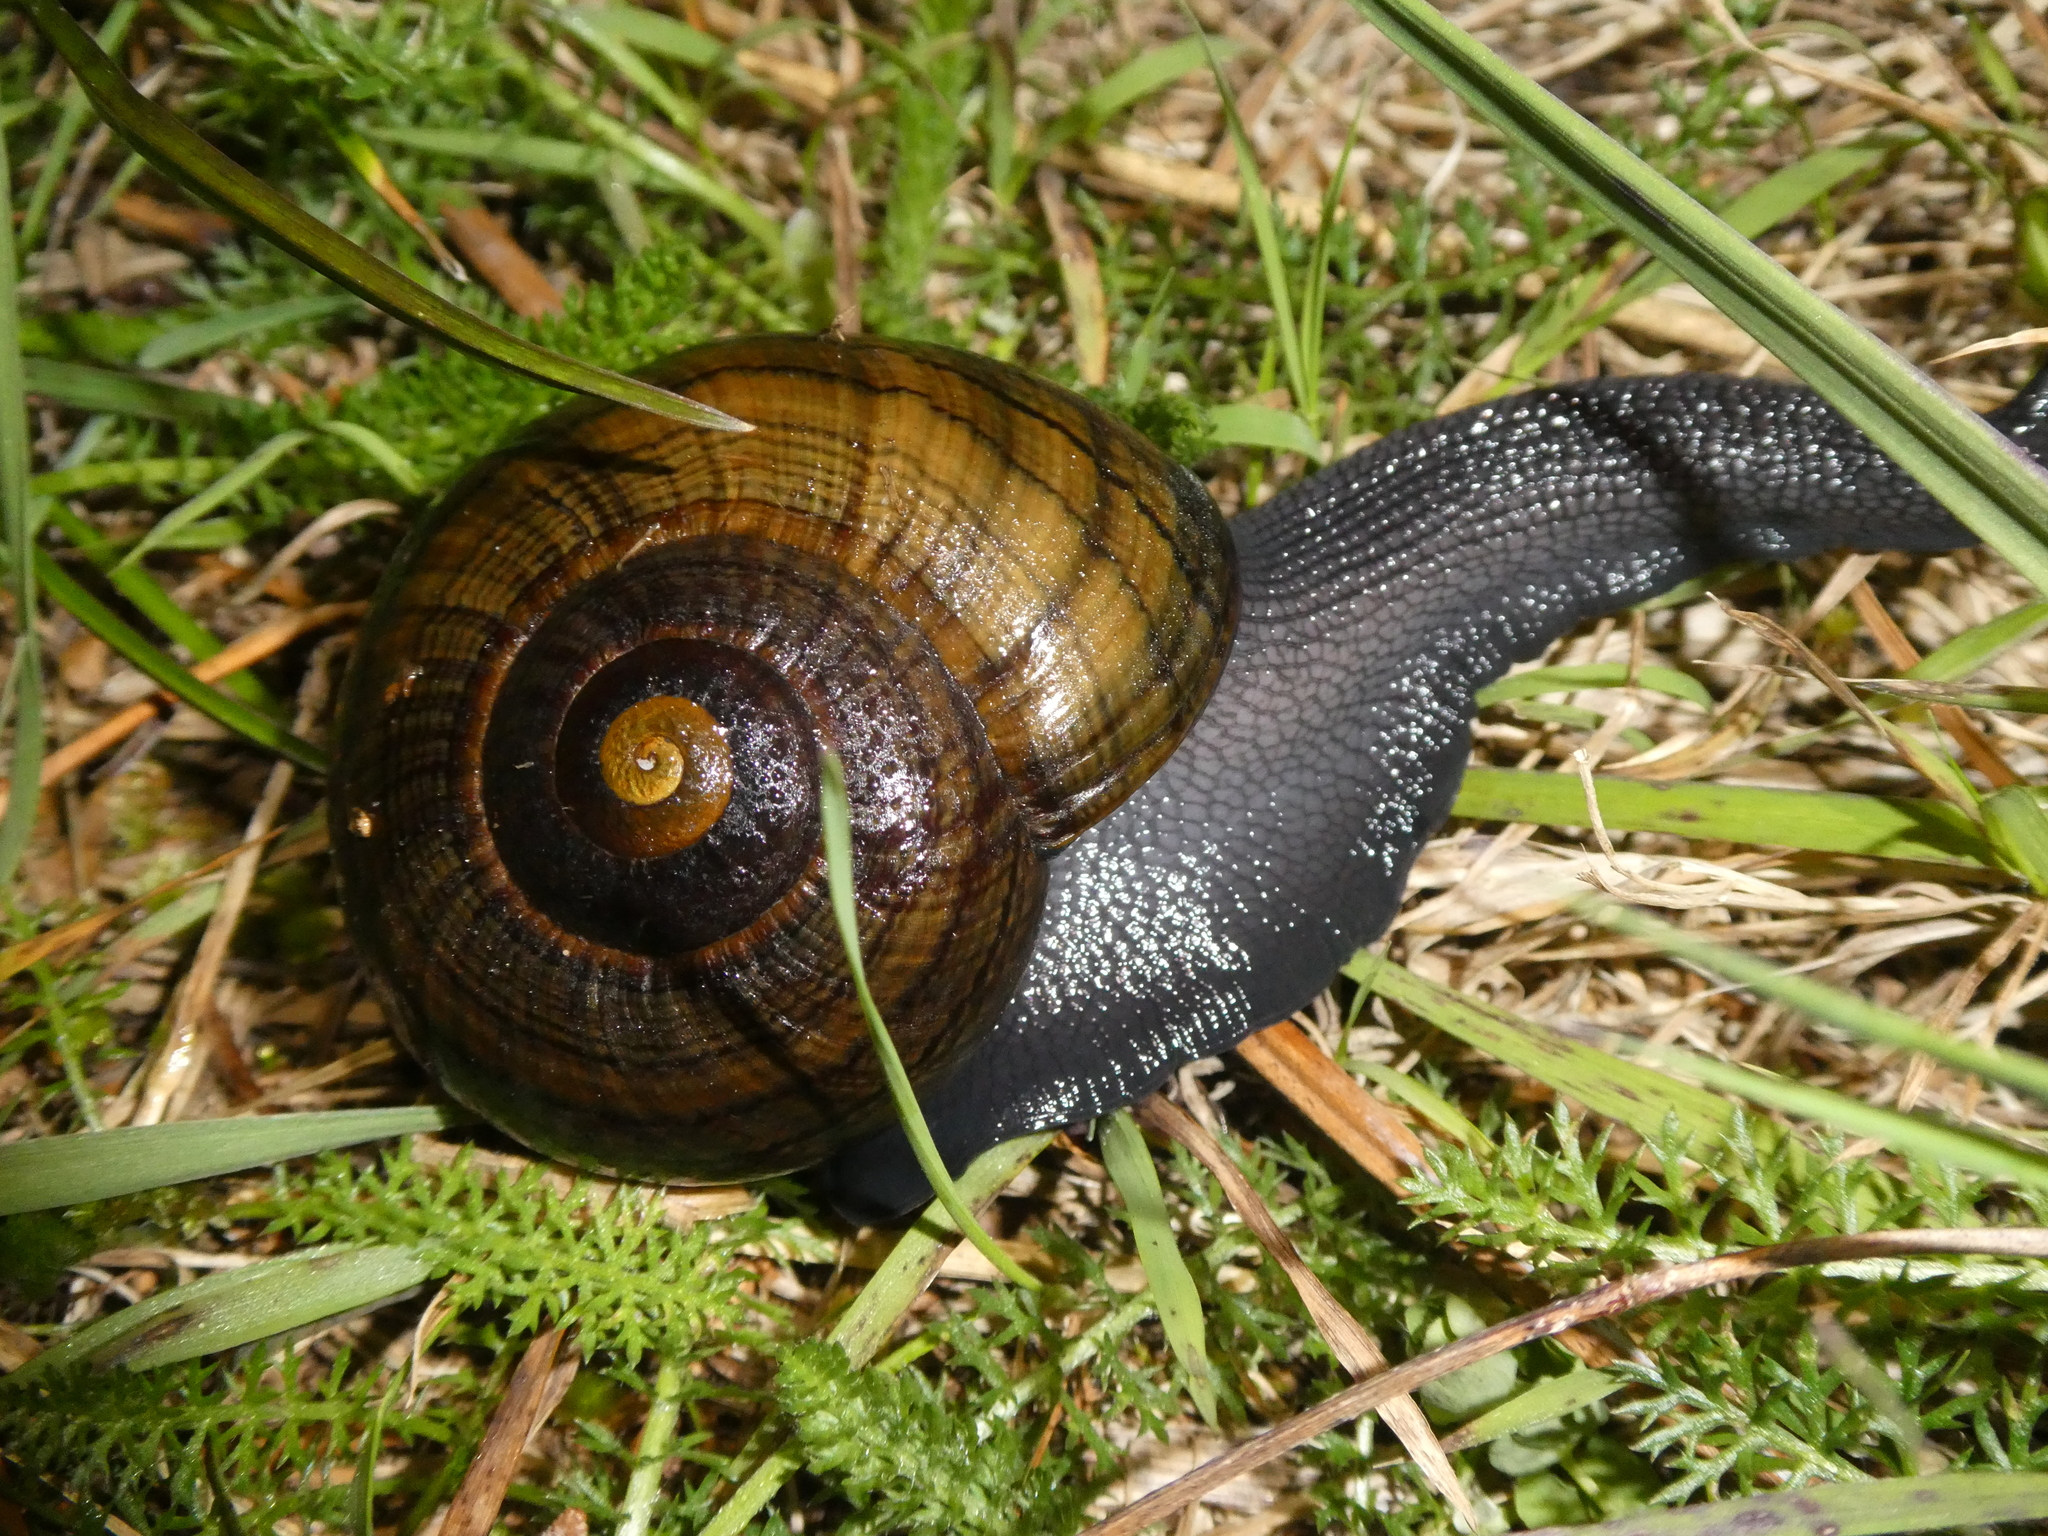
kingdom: Animalia
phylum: Mollusca
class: Gastropoda
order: Stylommatophora
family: Rhytididae
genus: Powelliphanta
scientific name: Powelliphanta hochstetteri
